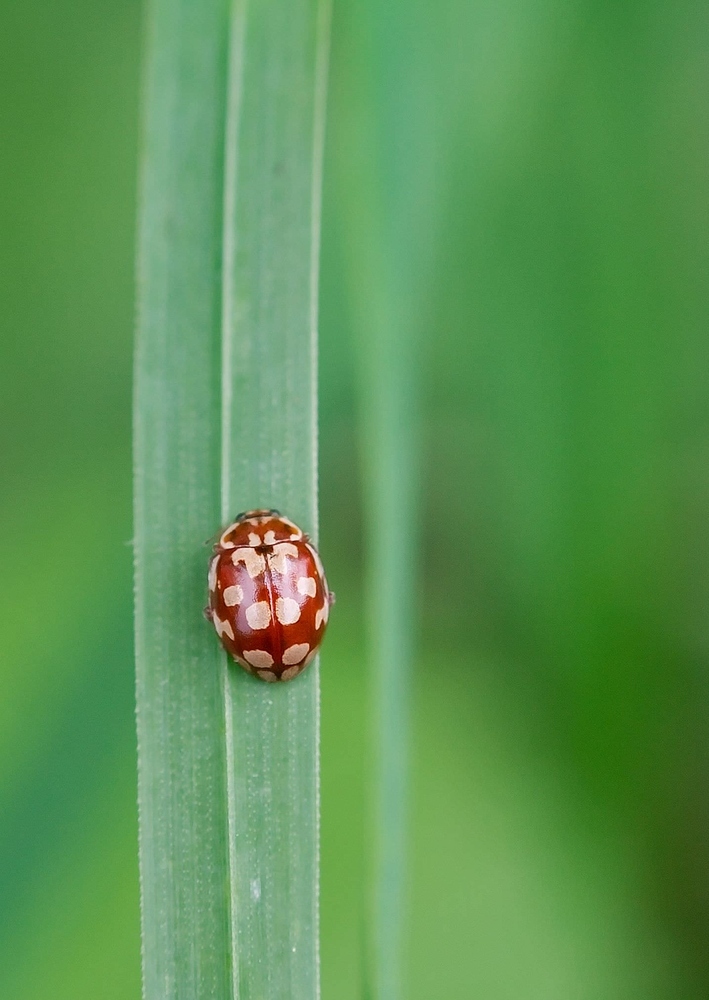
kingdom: Animalia
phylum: Arthropoda
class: Insecta
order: Coleoptera
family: Coccinellidae
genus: Myrrha
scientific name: Myrrha octodecimguttata
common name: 18-spot ladybird
